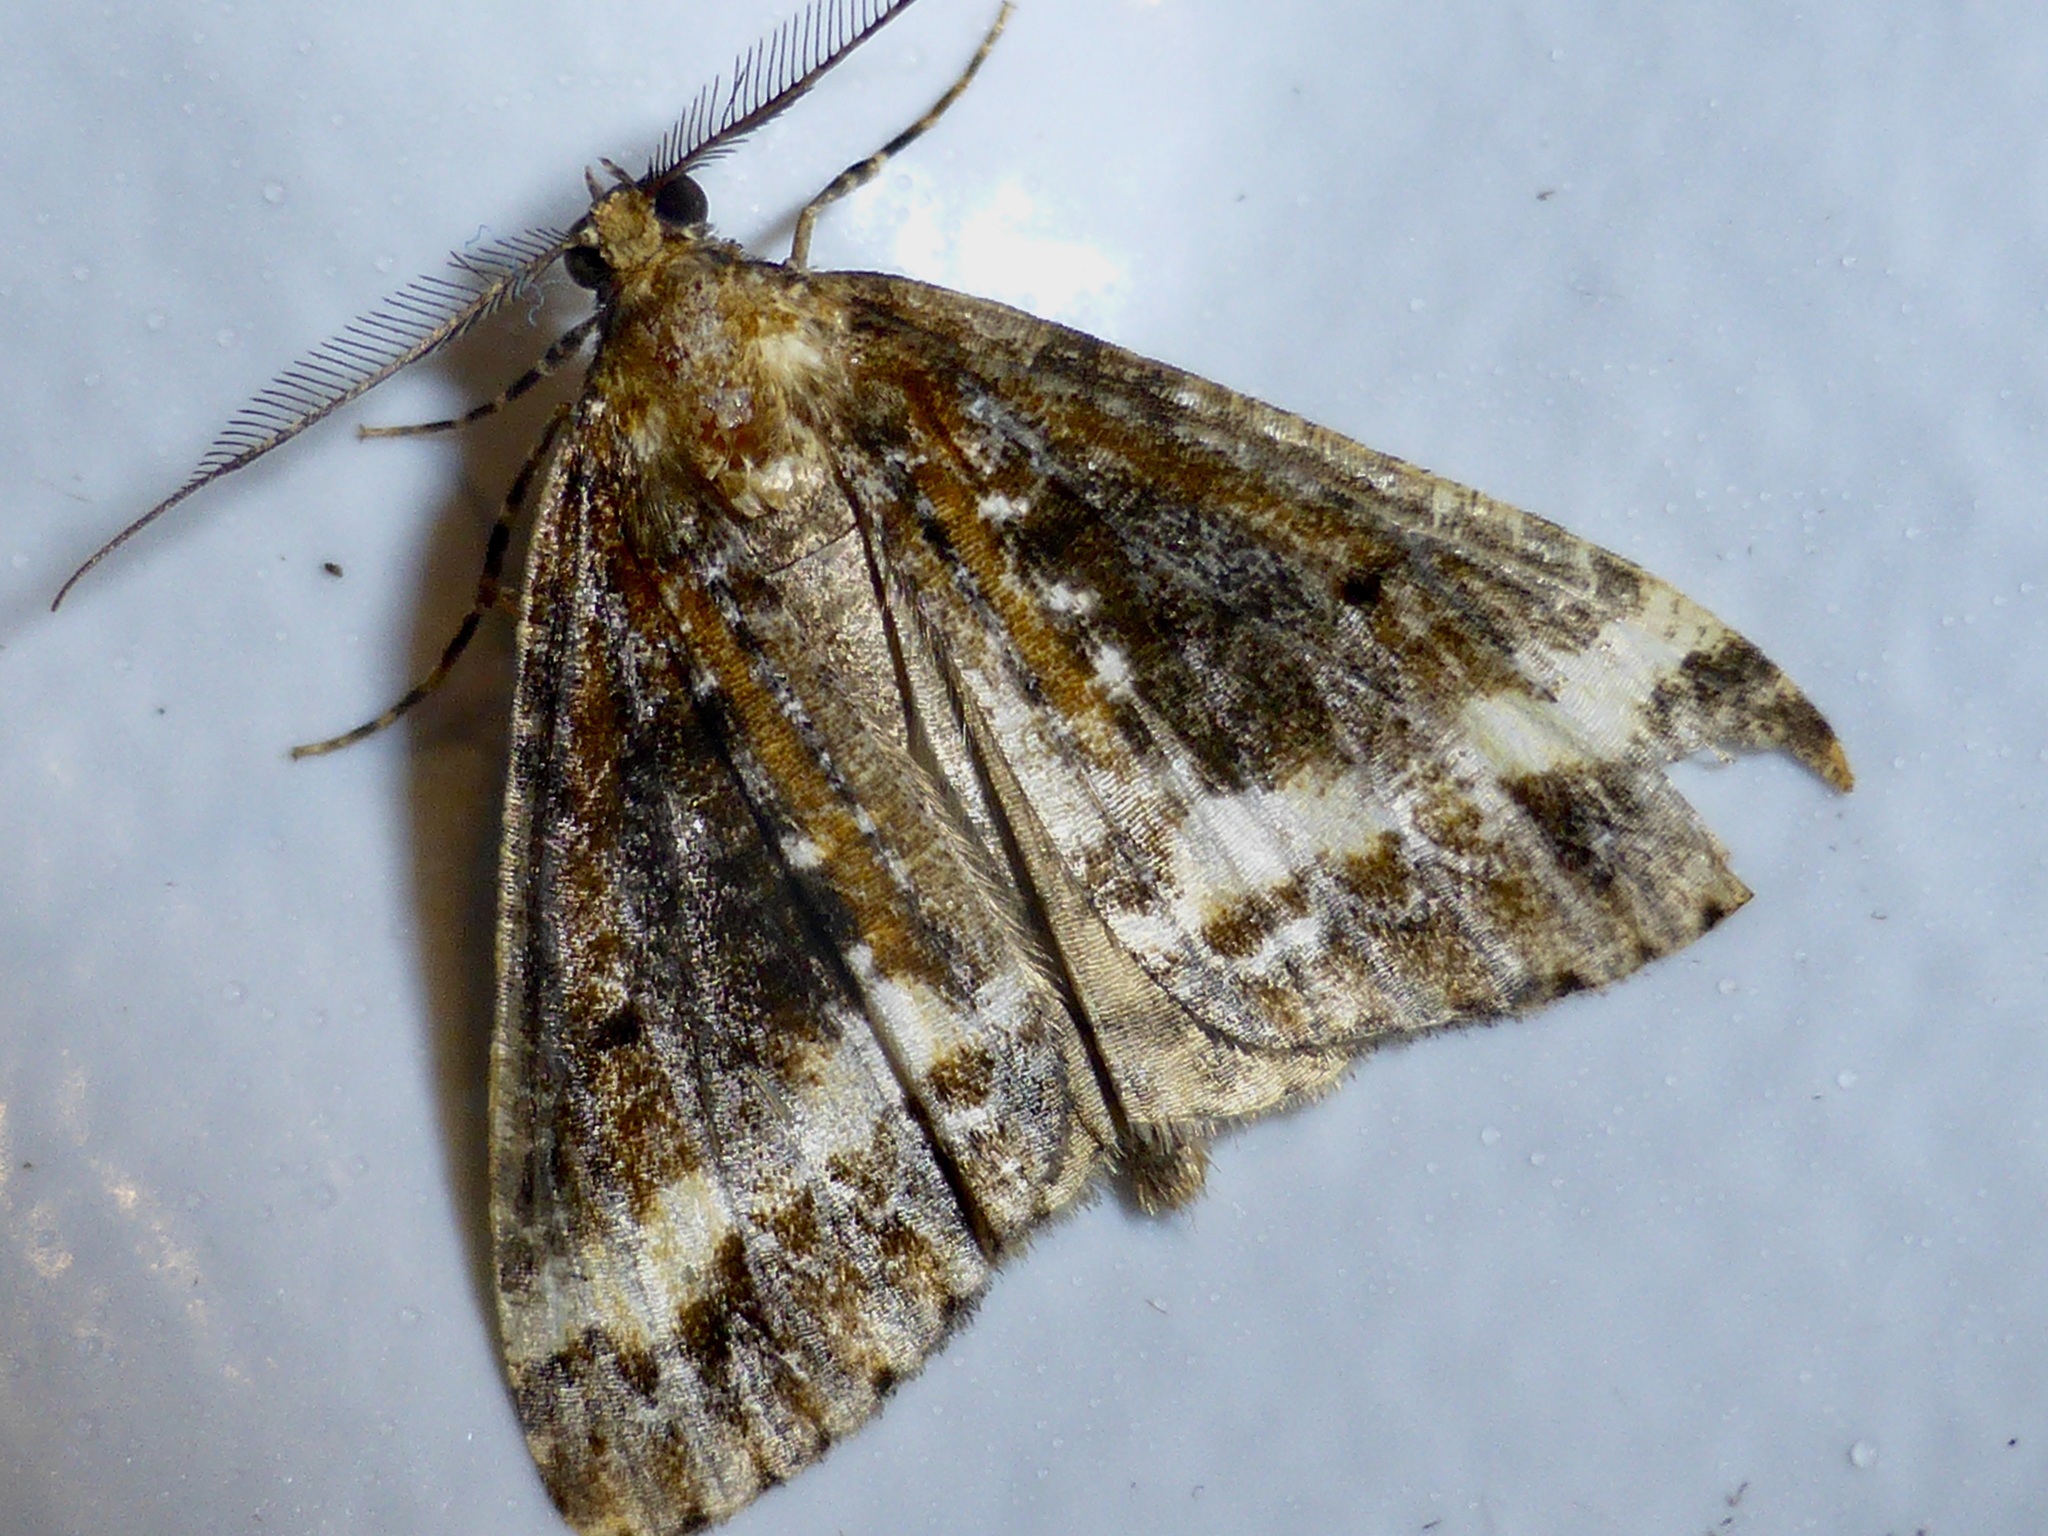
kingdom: Animalia
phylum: Arthropoda
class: Insecta
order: Lepidoptera
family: Geometridae
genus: Pseudocoremia
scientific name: Pseudocoremia leucelaea
